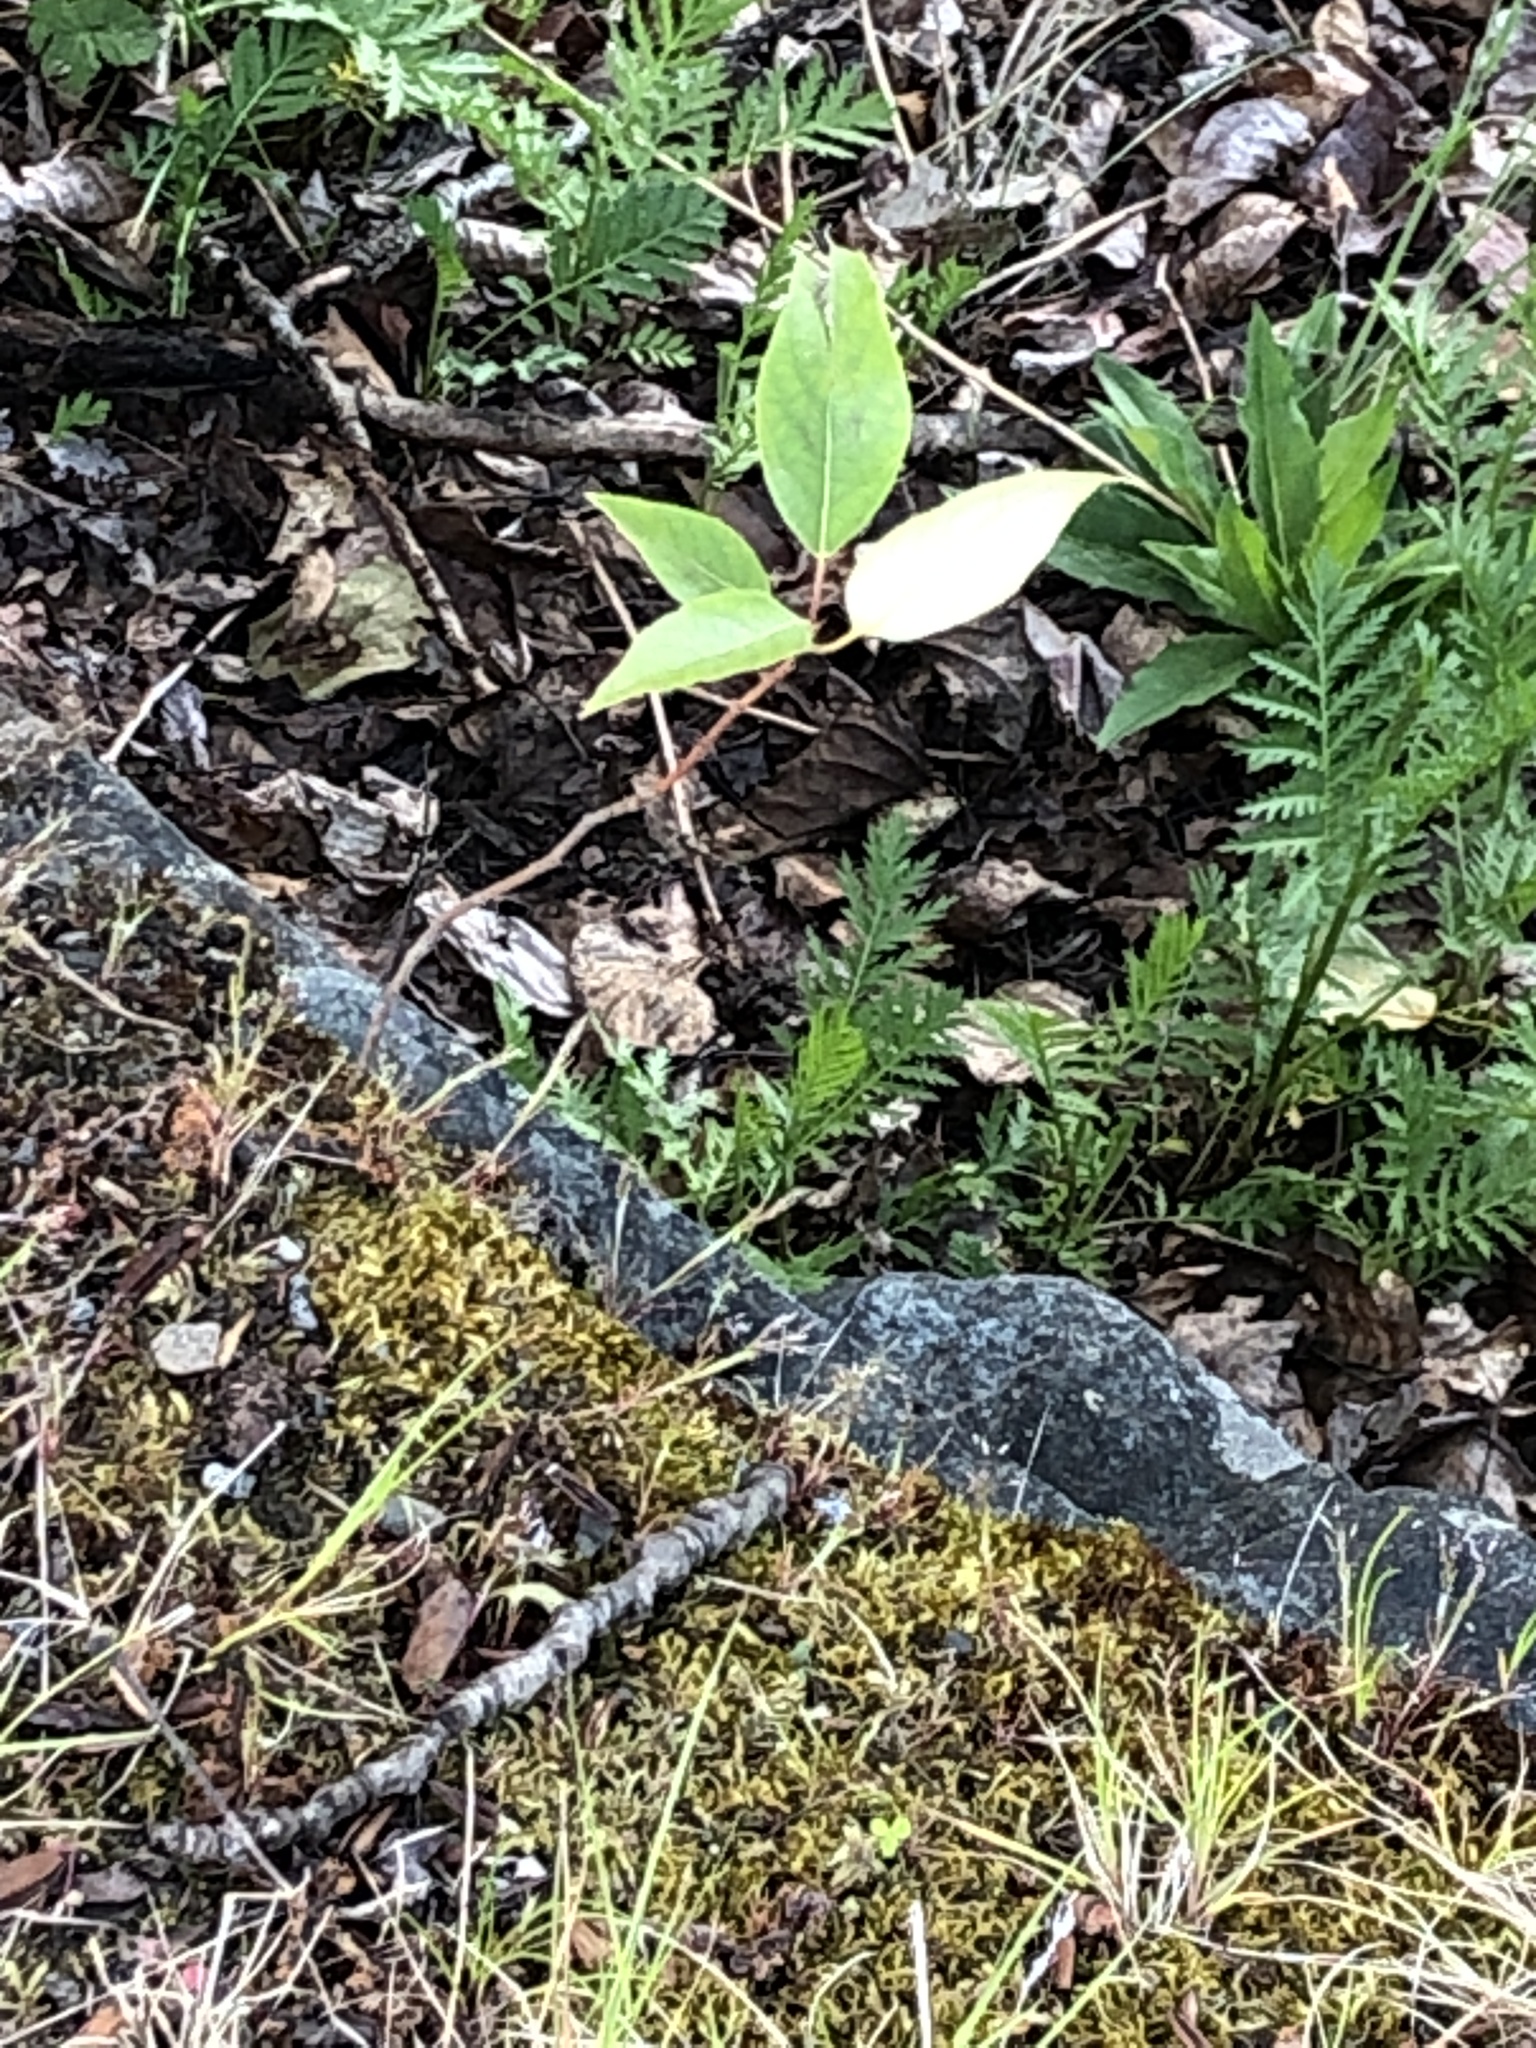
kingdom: Plantae
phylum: Tracheophyta
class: Magnoliopsida
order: Malpighiales
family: Salicaceae
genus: Populus
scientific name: Populus trichocarpa
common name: Black cottonwood
